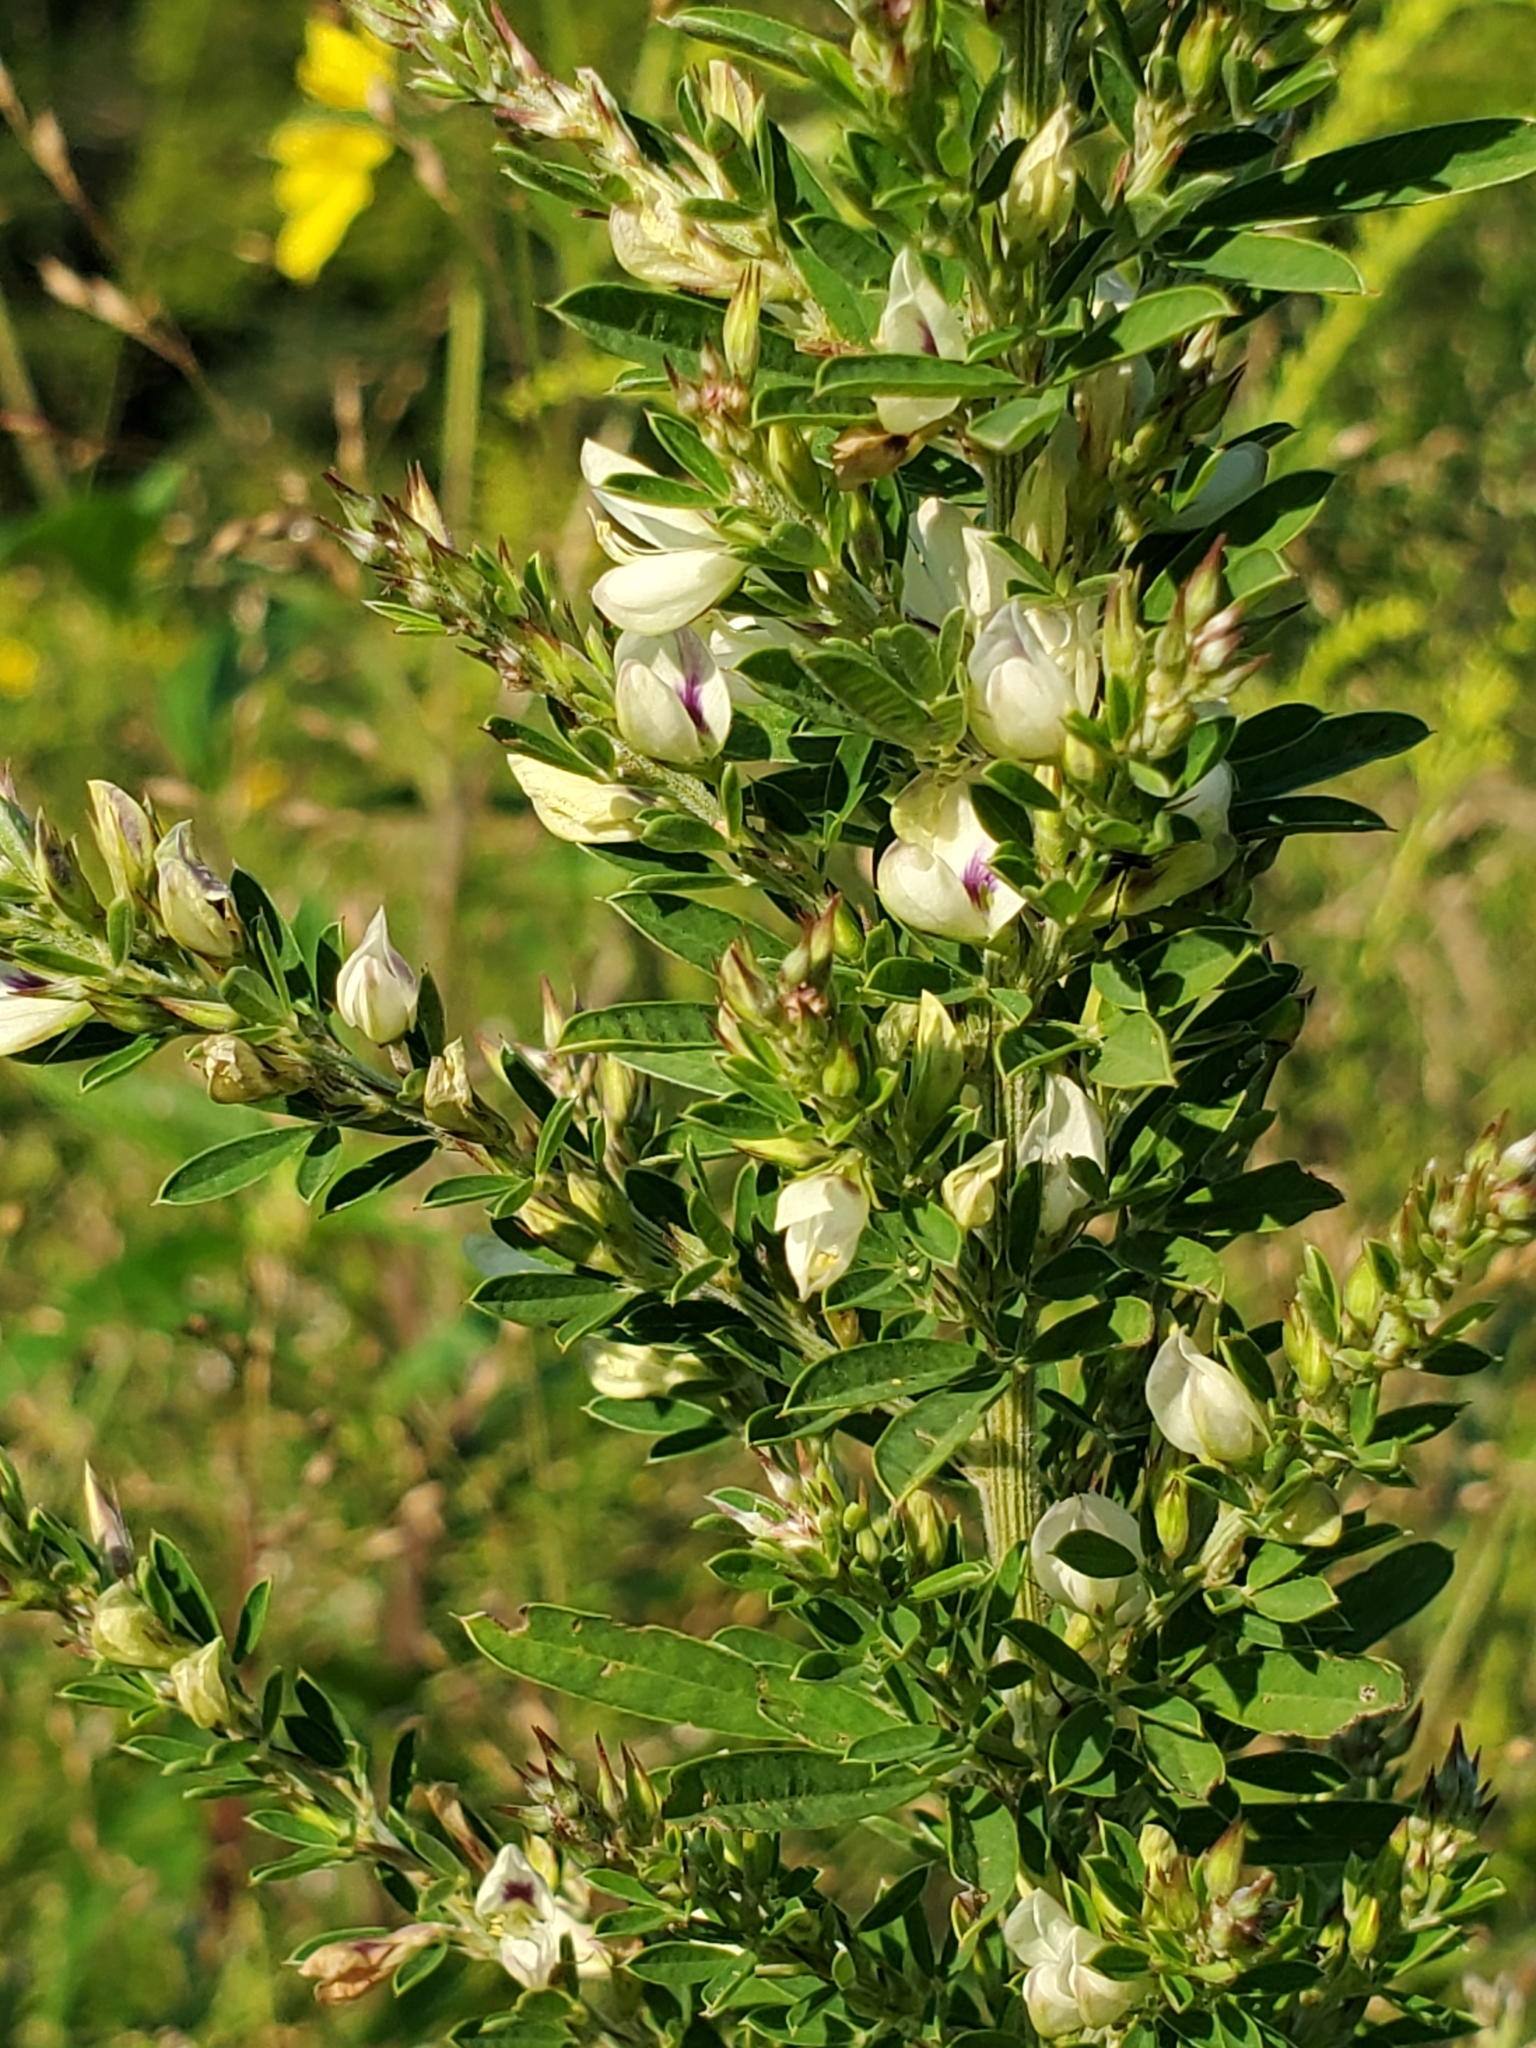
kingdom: Plantae
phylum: Tracheophyta
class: Magnoliopsida
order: Fabales
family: Fabaceae
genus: Lespedeza
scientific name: Lespedeza cuneata
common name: Chinese bush-clover
